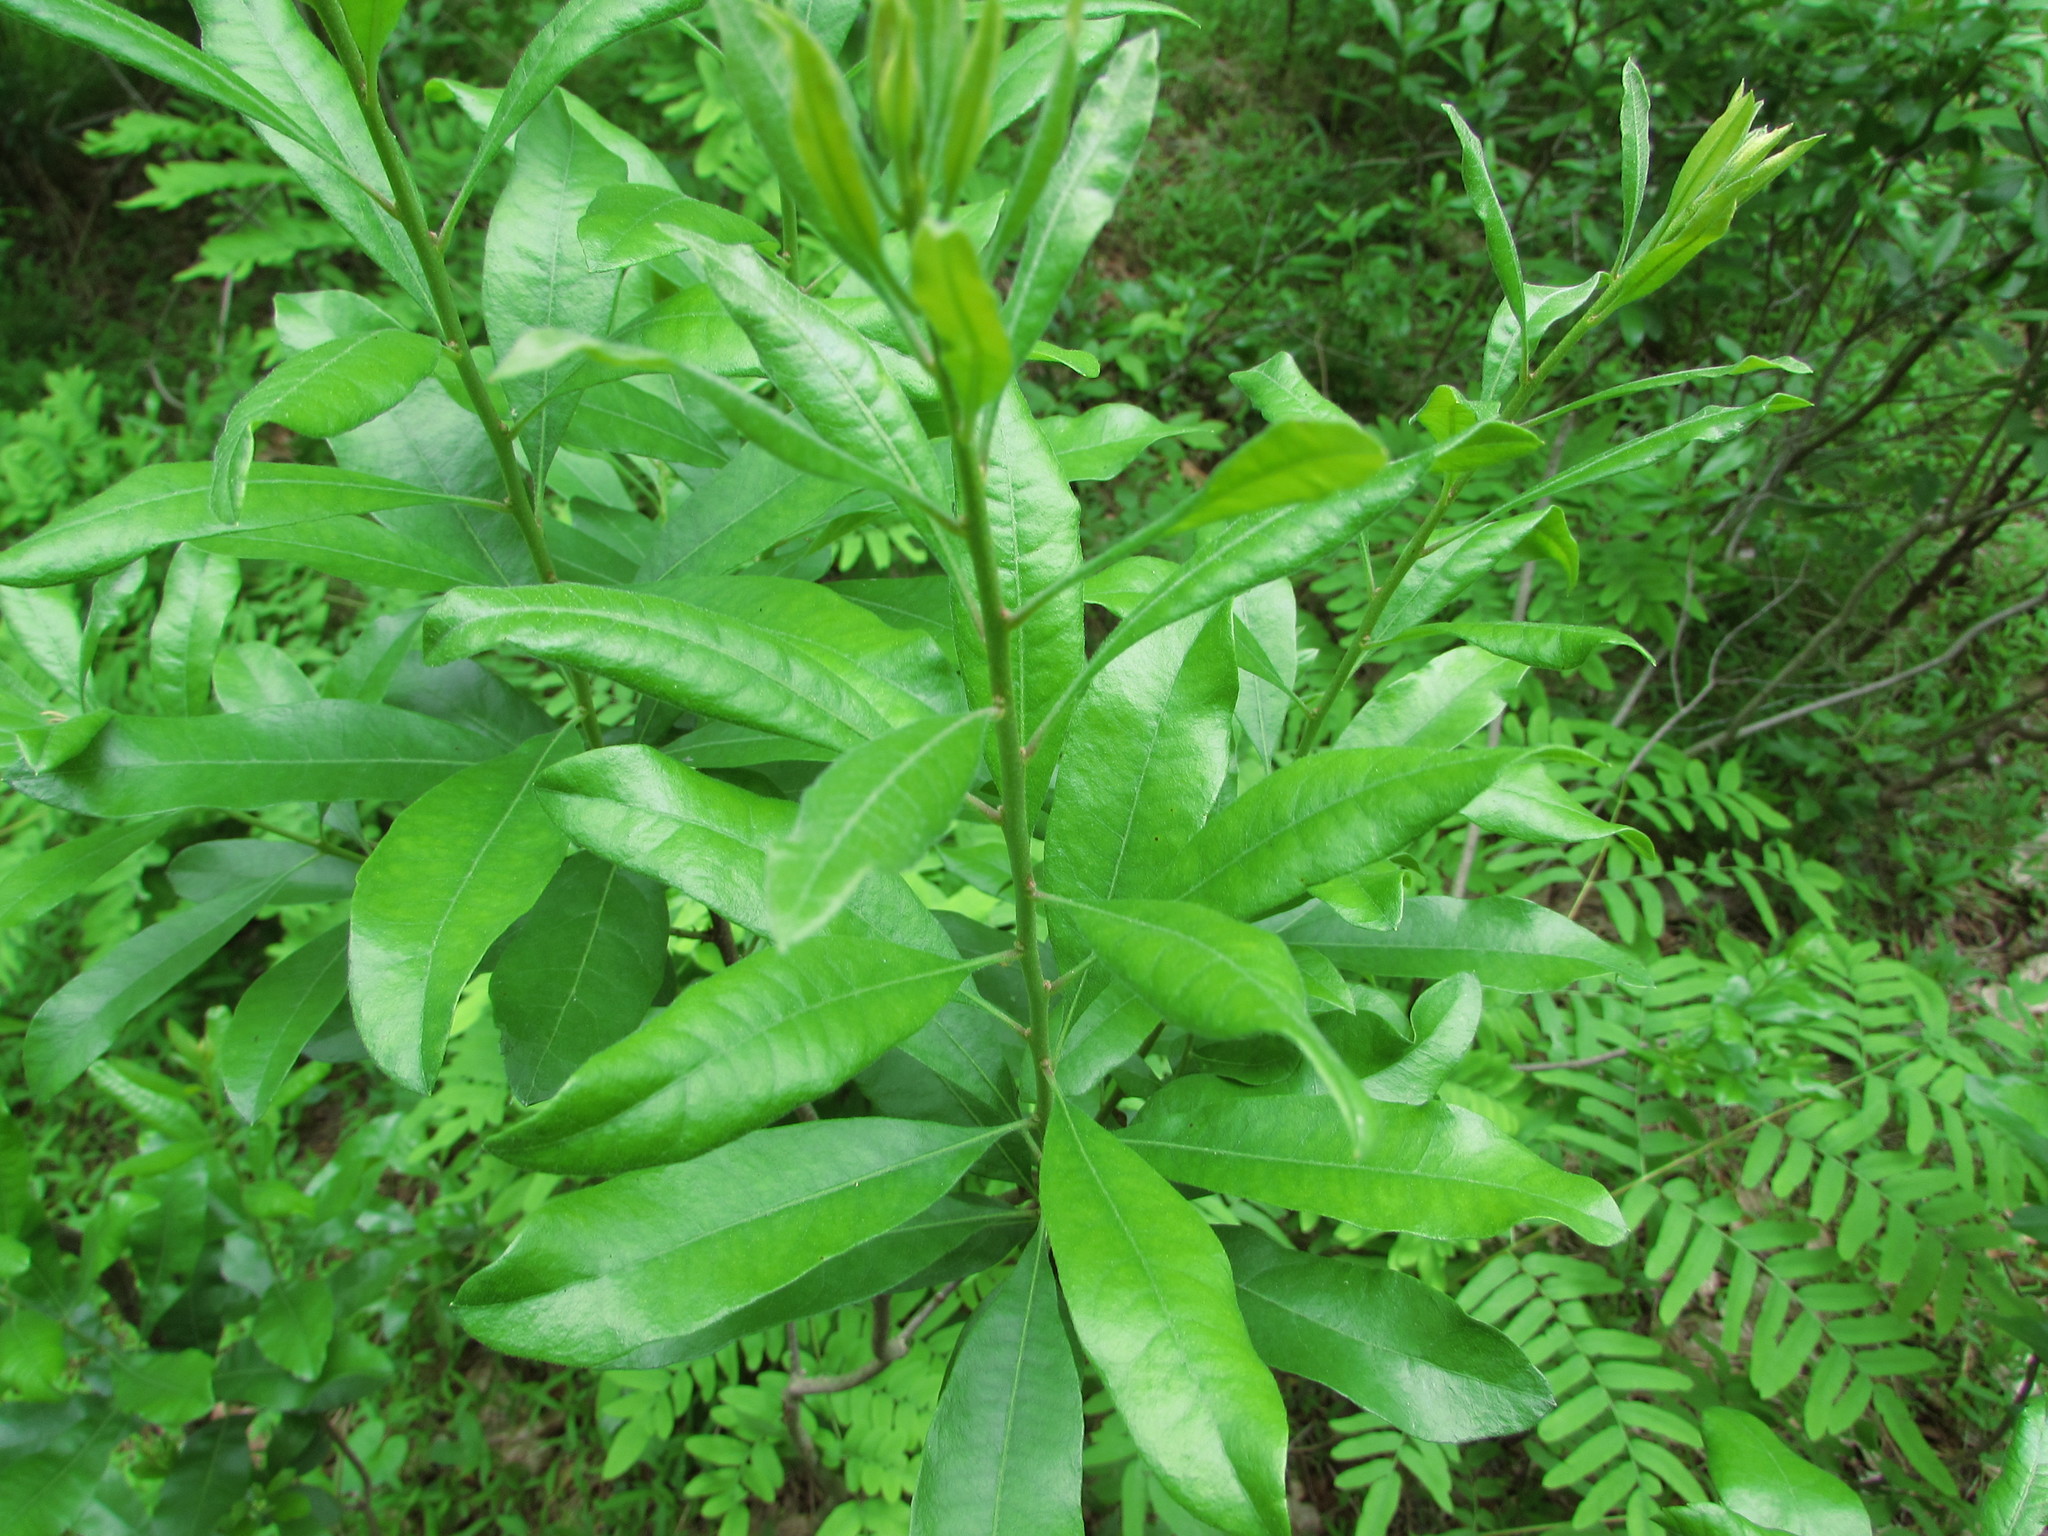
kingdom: Plantae
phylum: Tracheophyta
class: Magnoliopsida
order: Fagales
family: Myricaceae
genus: Morella
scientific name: Morella pensylvanica
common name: Northern bayberry
